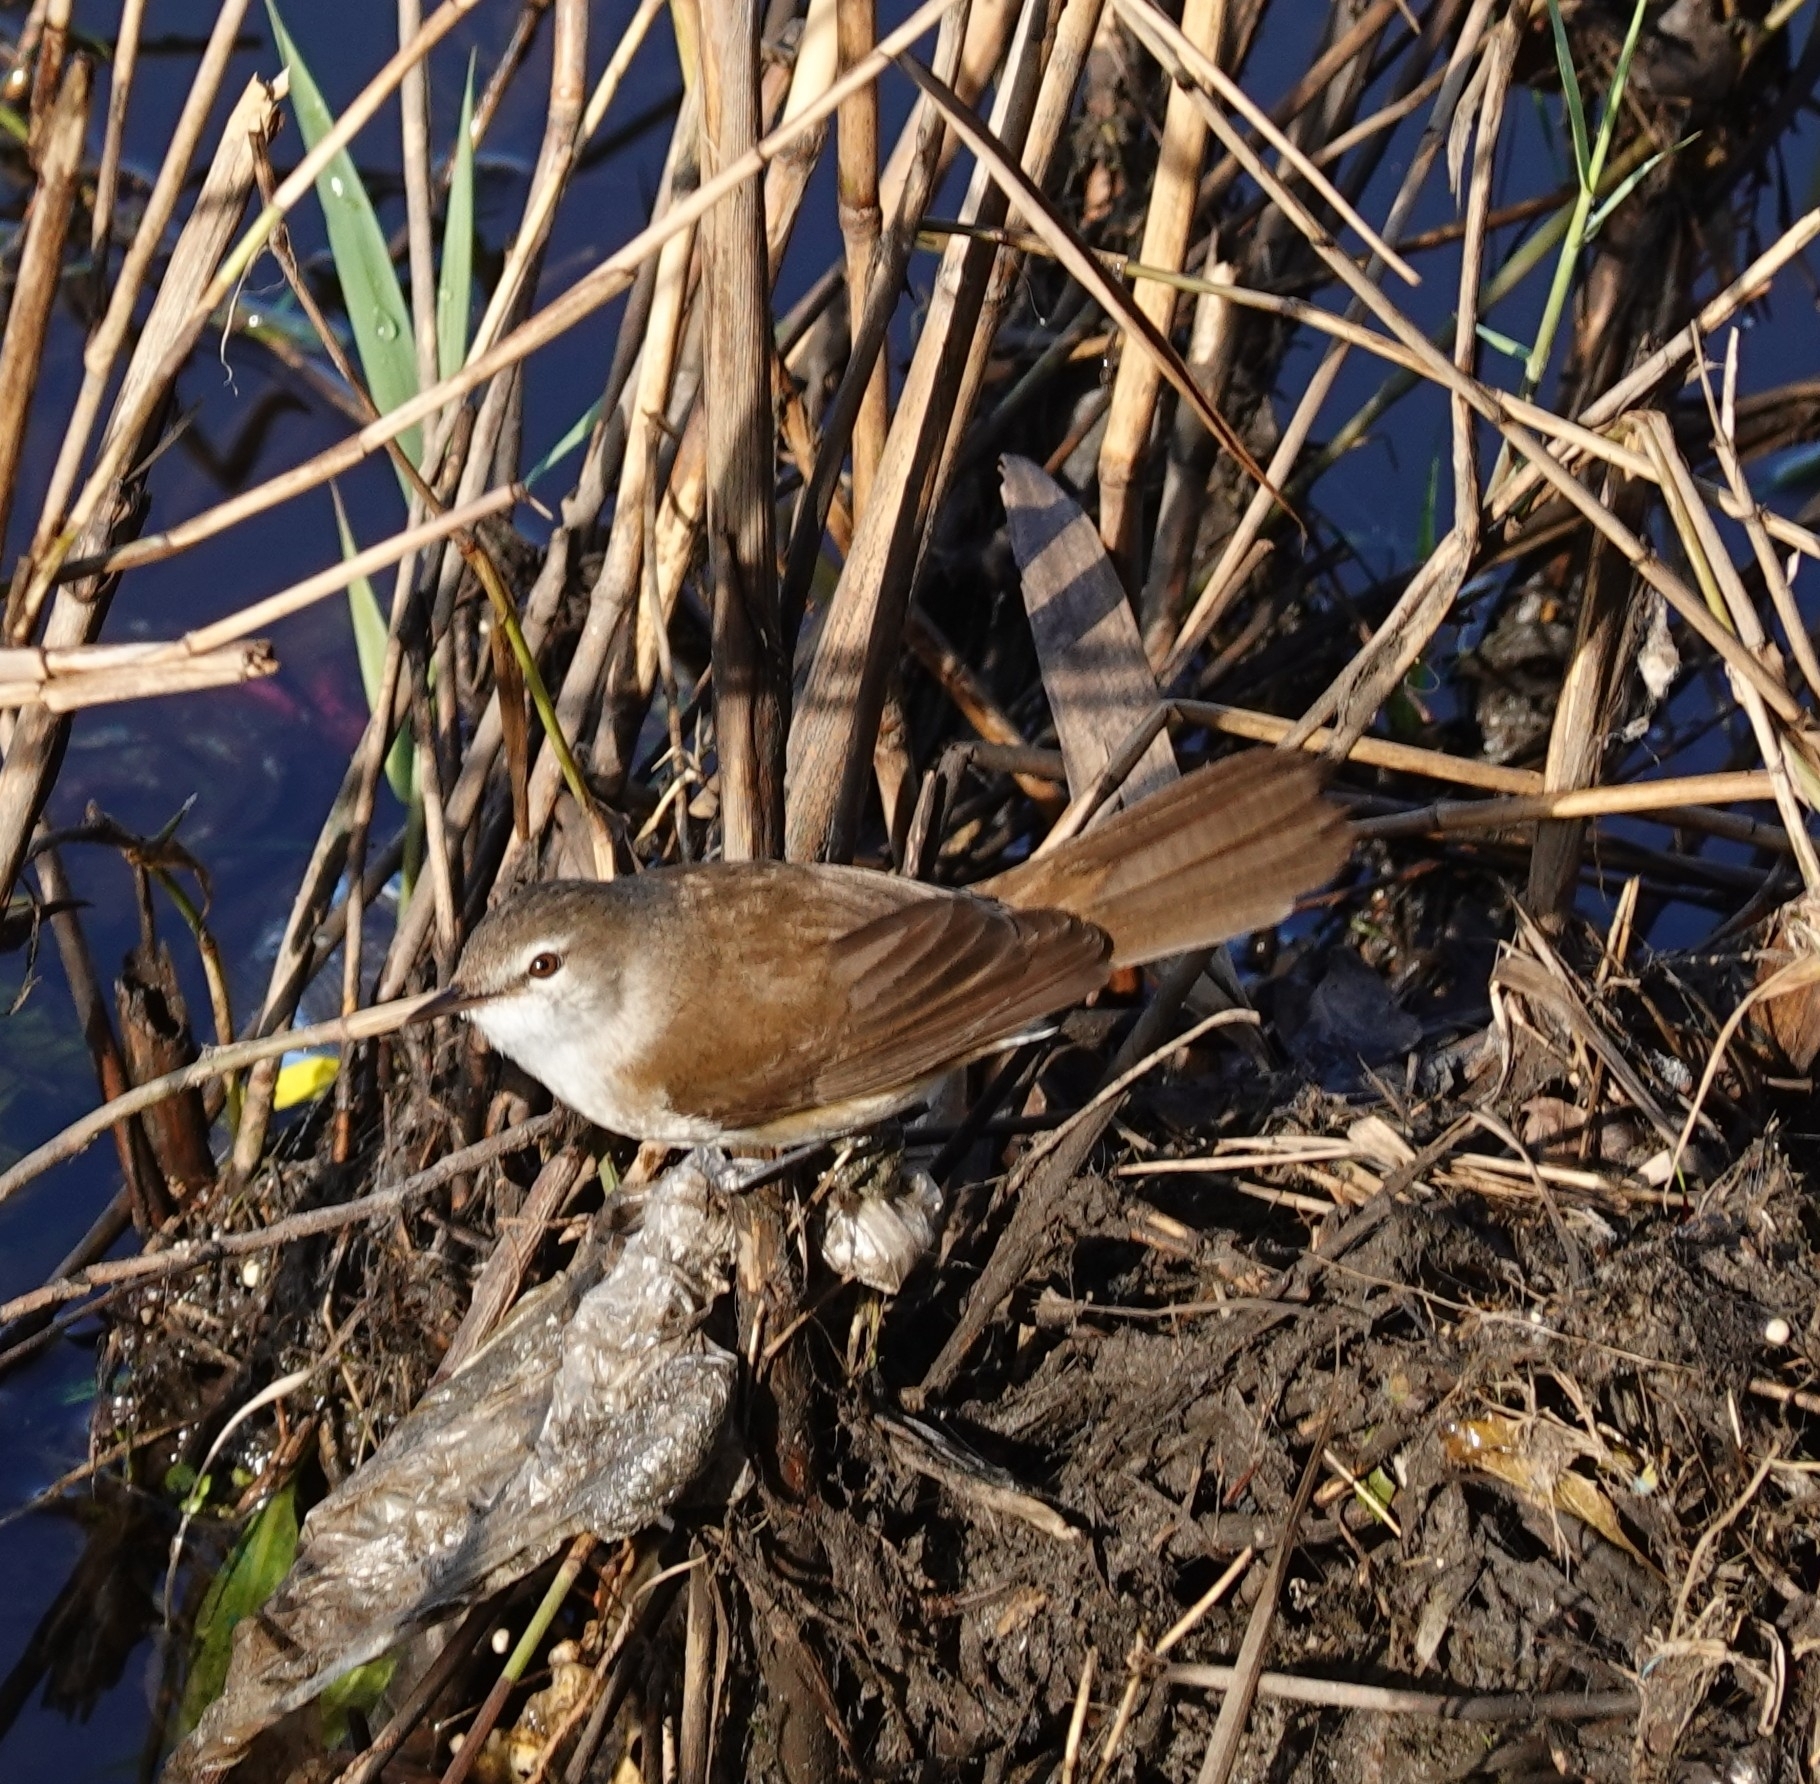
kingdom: Animalia
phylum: Chordata
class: Aves
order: Passeriformes
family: Acrocephalidae
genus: Acrocephalus
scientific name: Acrocephalus gracilirostris
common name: Lesser swamp warbler
